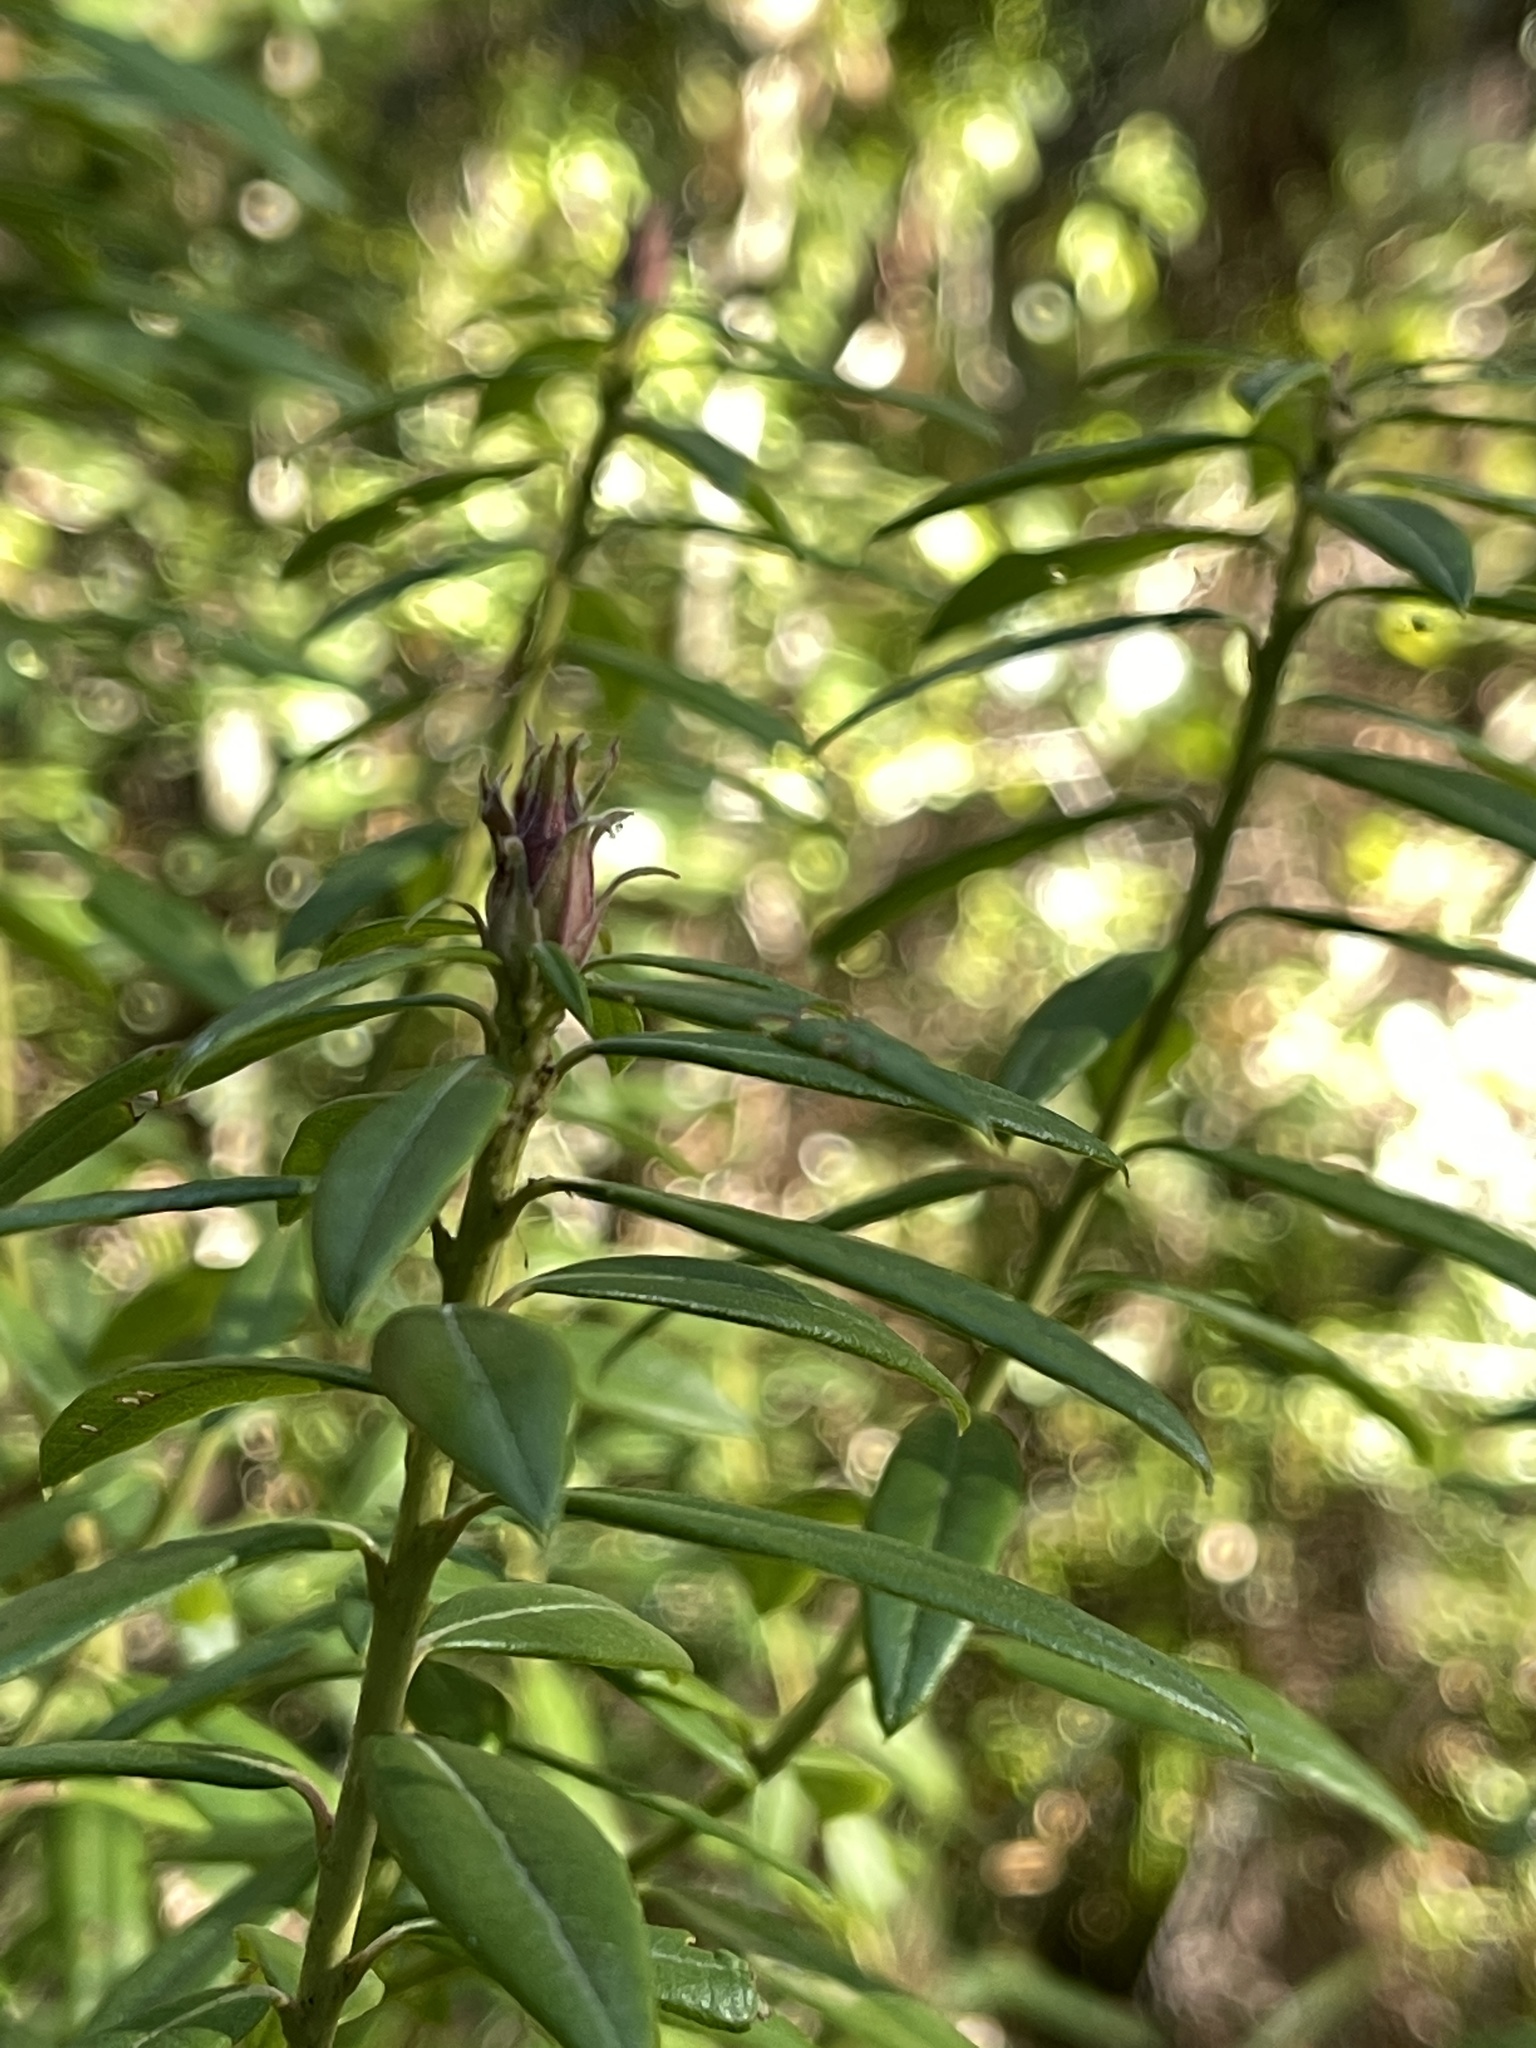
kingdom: Plantae
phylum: Tracheophyta
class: Magnoliopsida
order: Ericales
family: Ericaceae
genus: Rhododendron
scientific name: Rhododendron columbianum
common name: Western labrador tea
